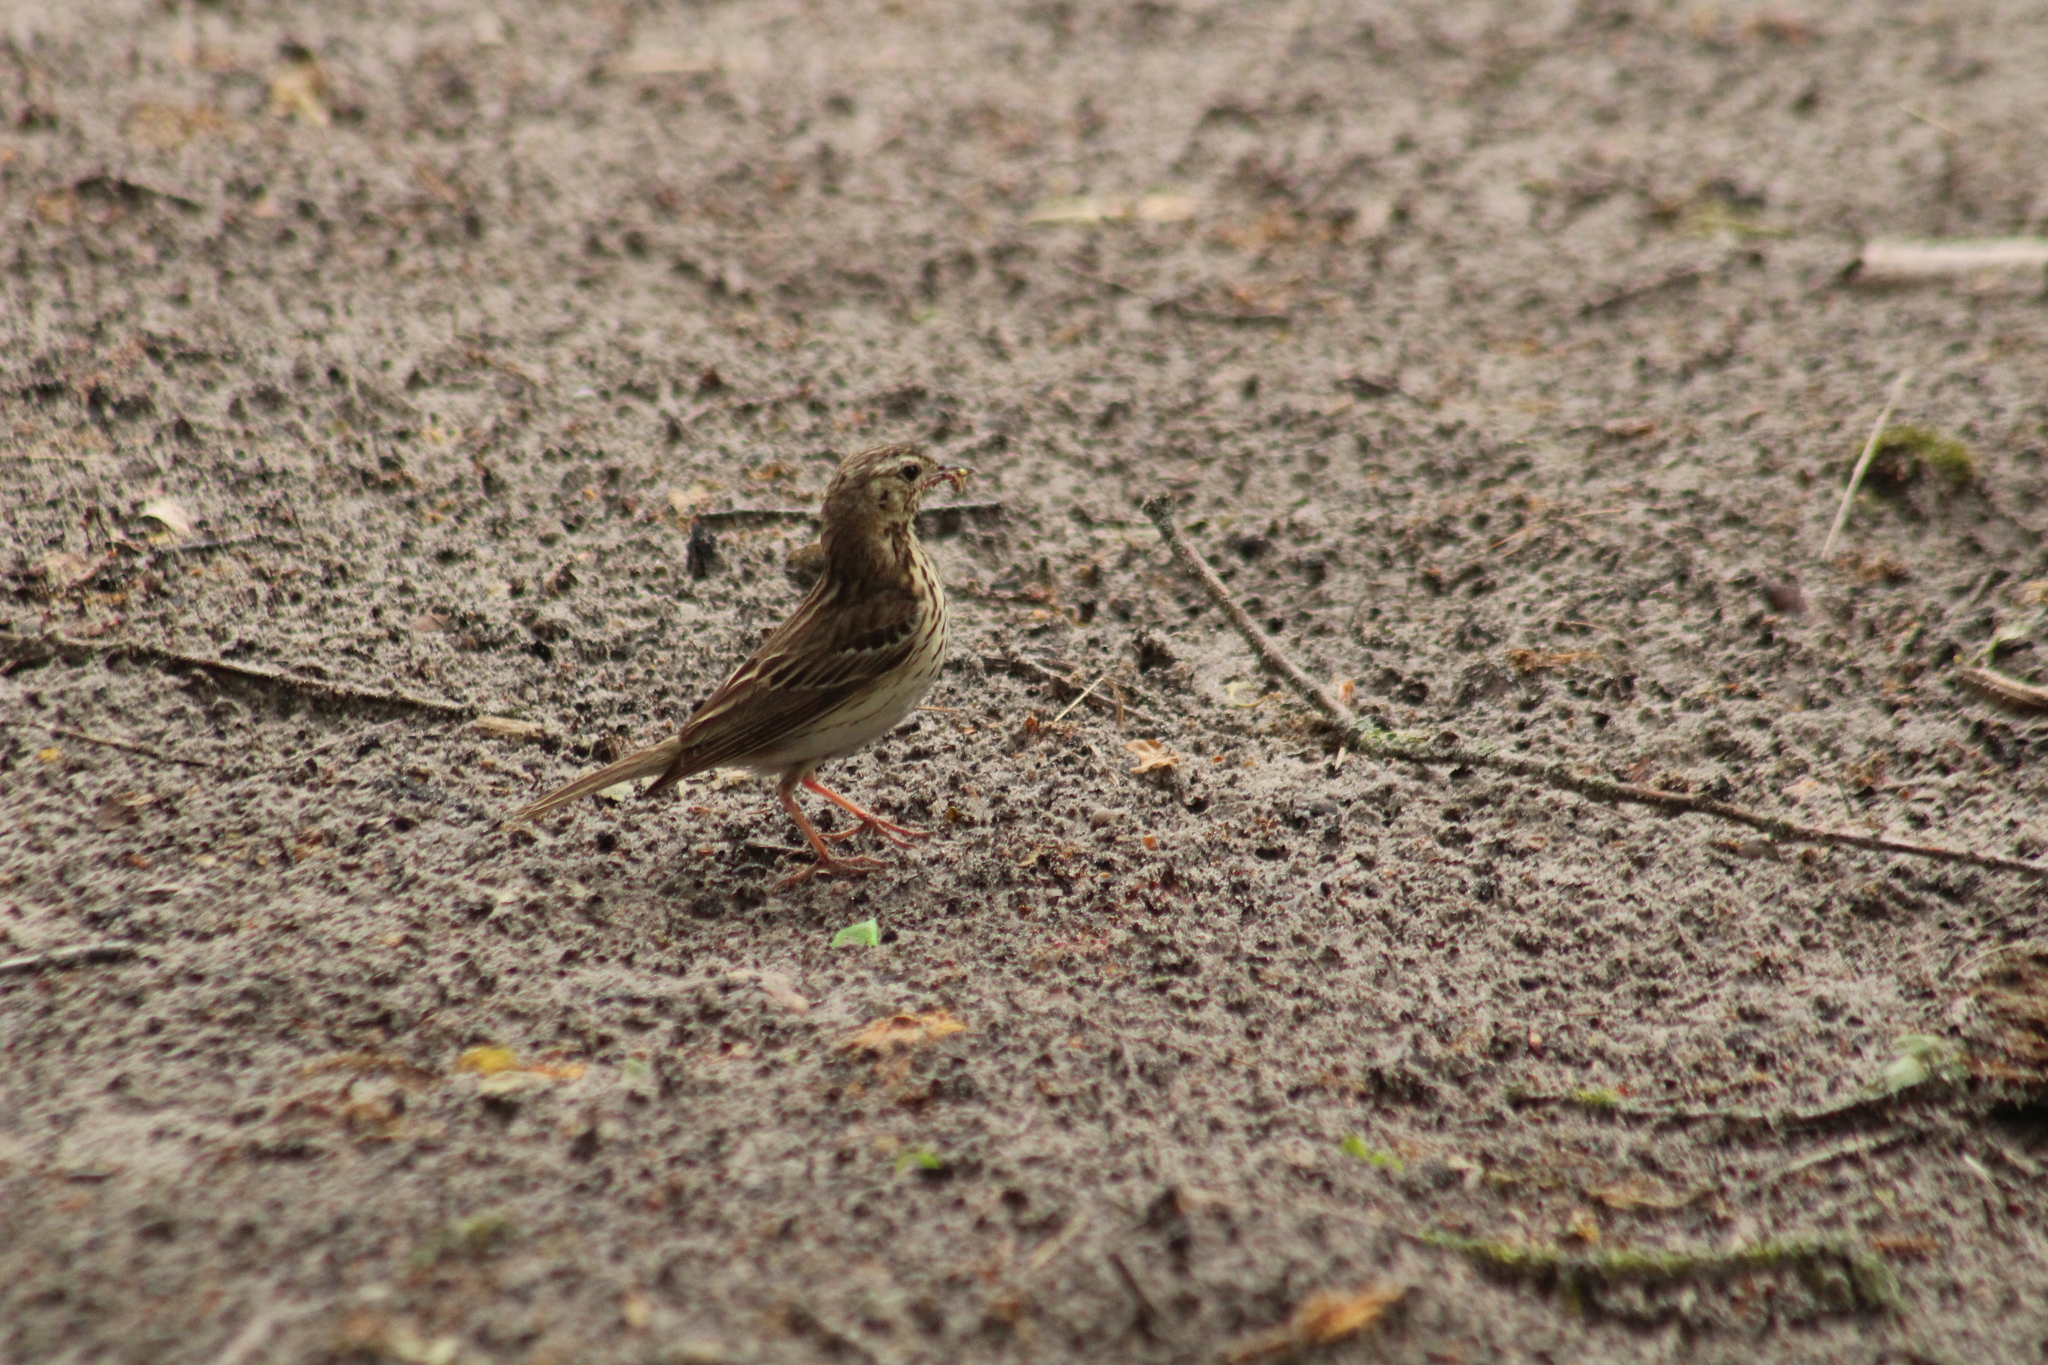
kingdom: Animalia
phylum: Chordata
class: Aves
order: Passeriformes
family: Motacillidae
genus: Anthus
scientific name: Anthus trivialis
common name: Tree pipit
